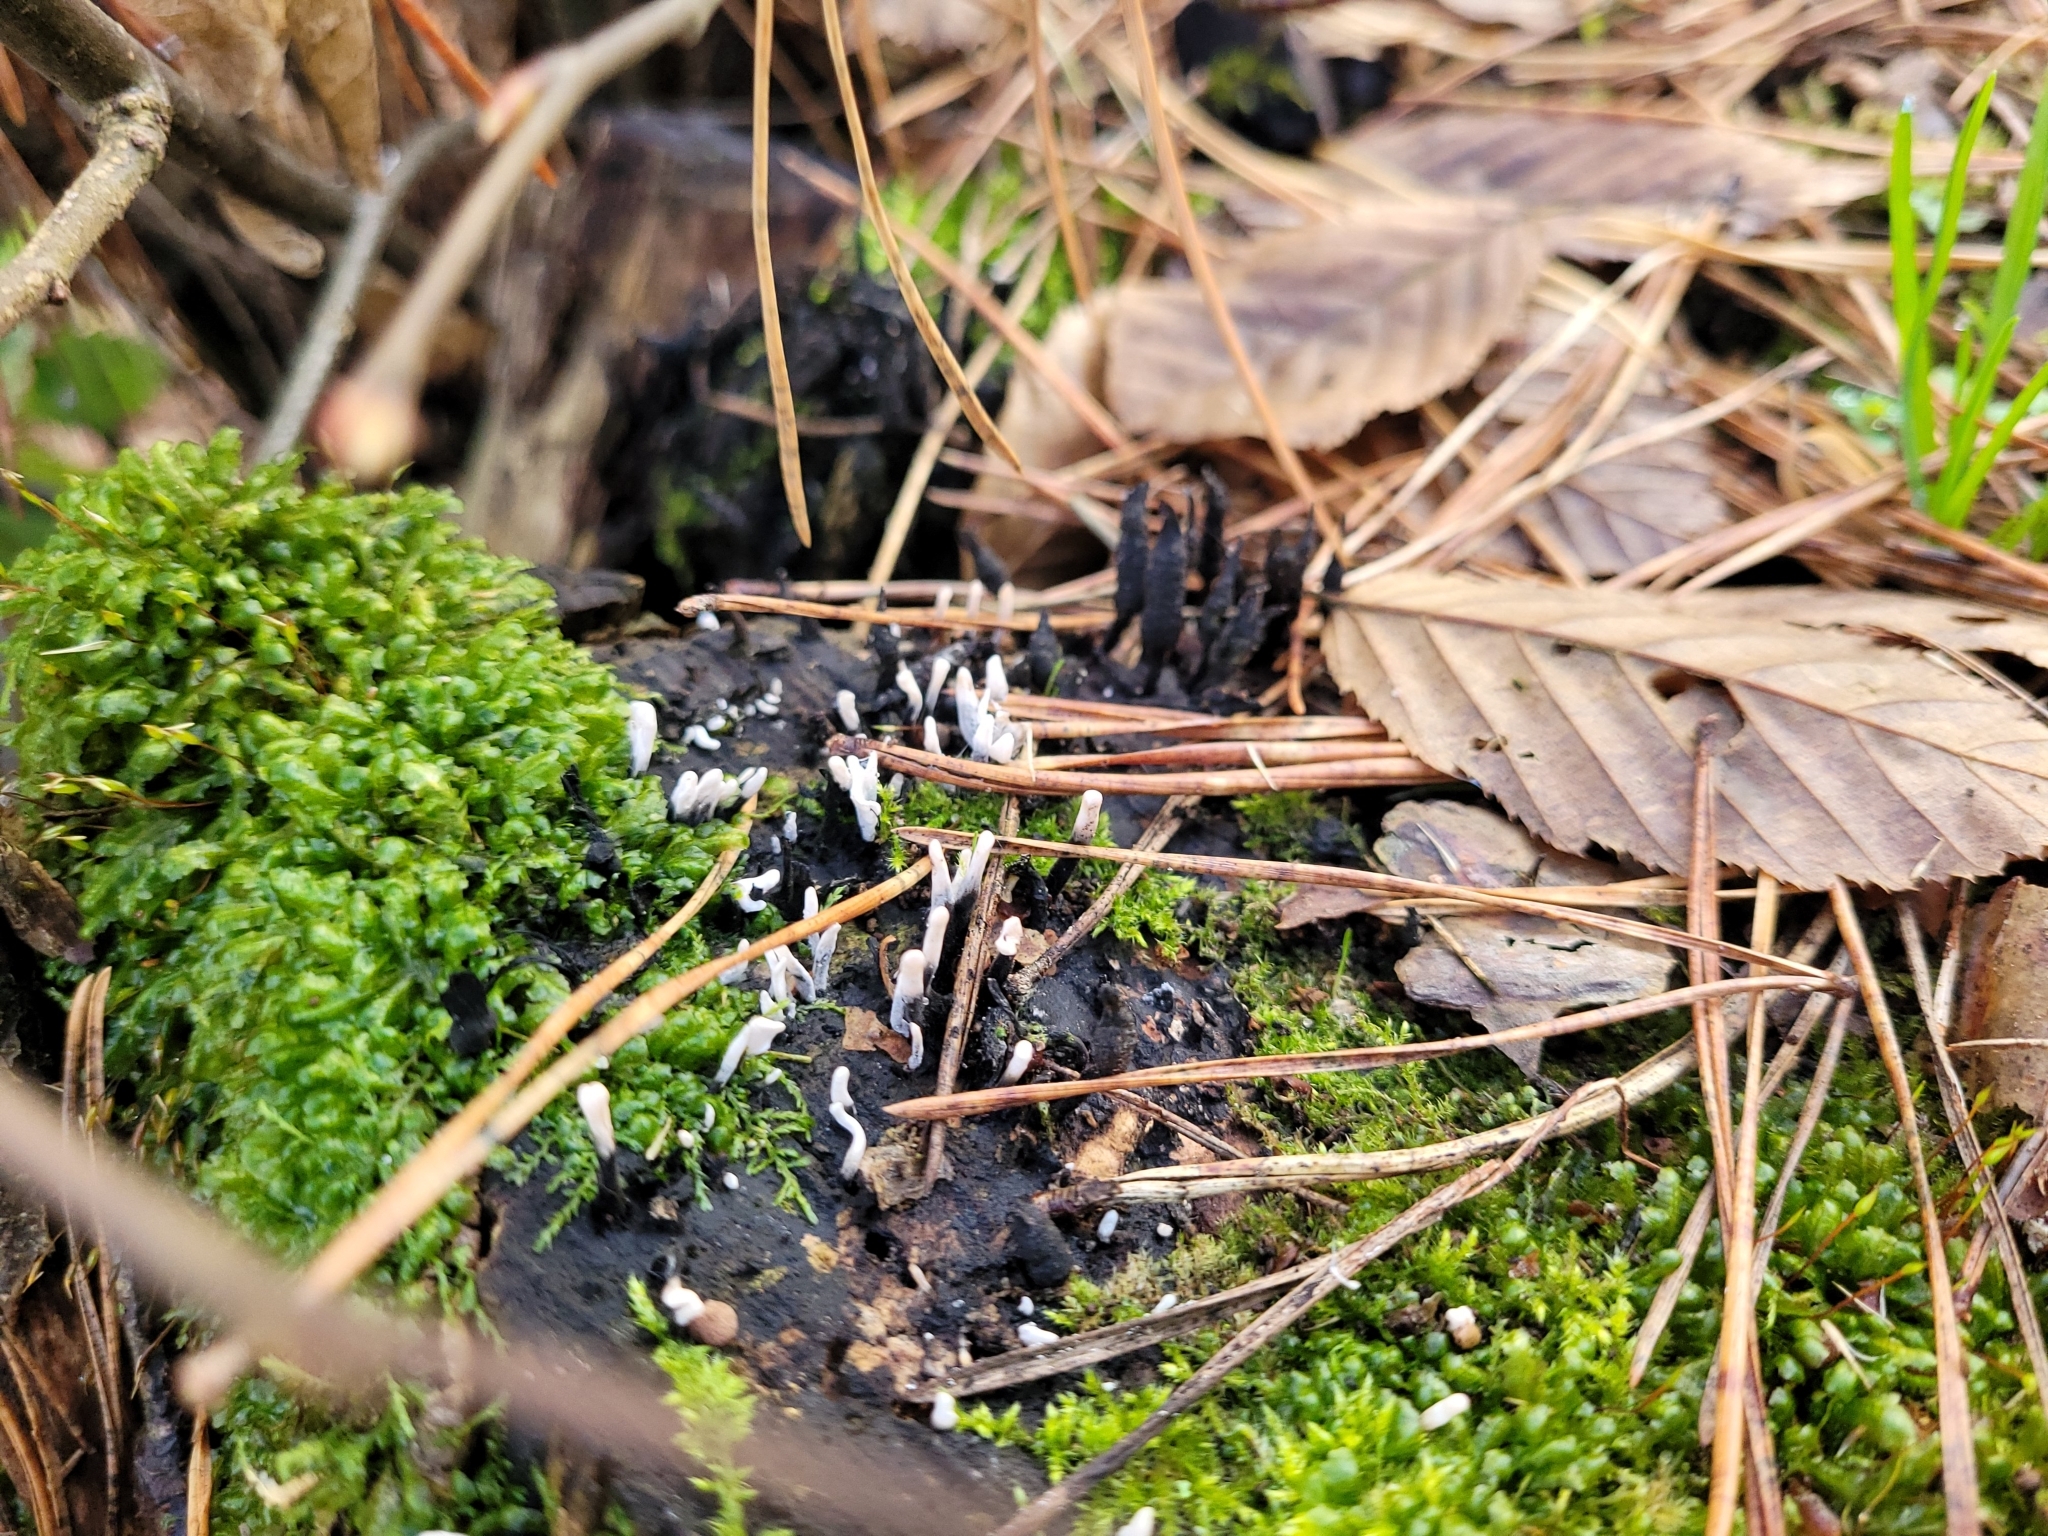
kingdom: Fungi
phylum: Ascomycota
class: Sordariomycetes
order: Xylariales
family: Xylariaceae
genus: Xylaria
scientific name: Xylaria hypoxylon
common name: Candle-snuff fungus
